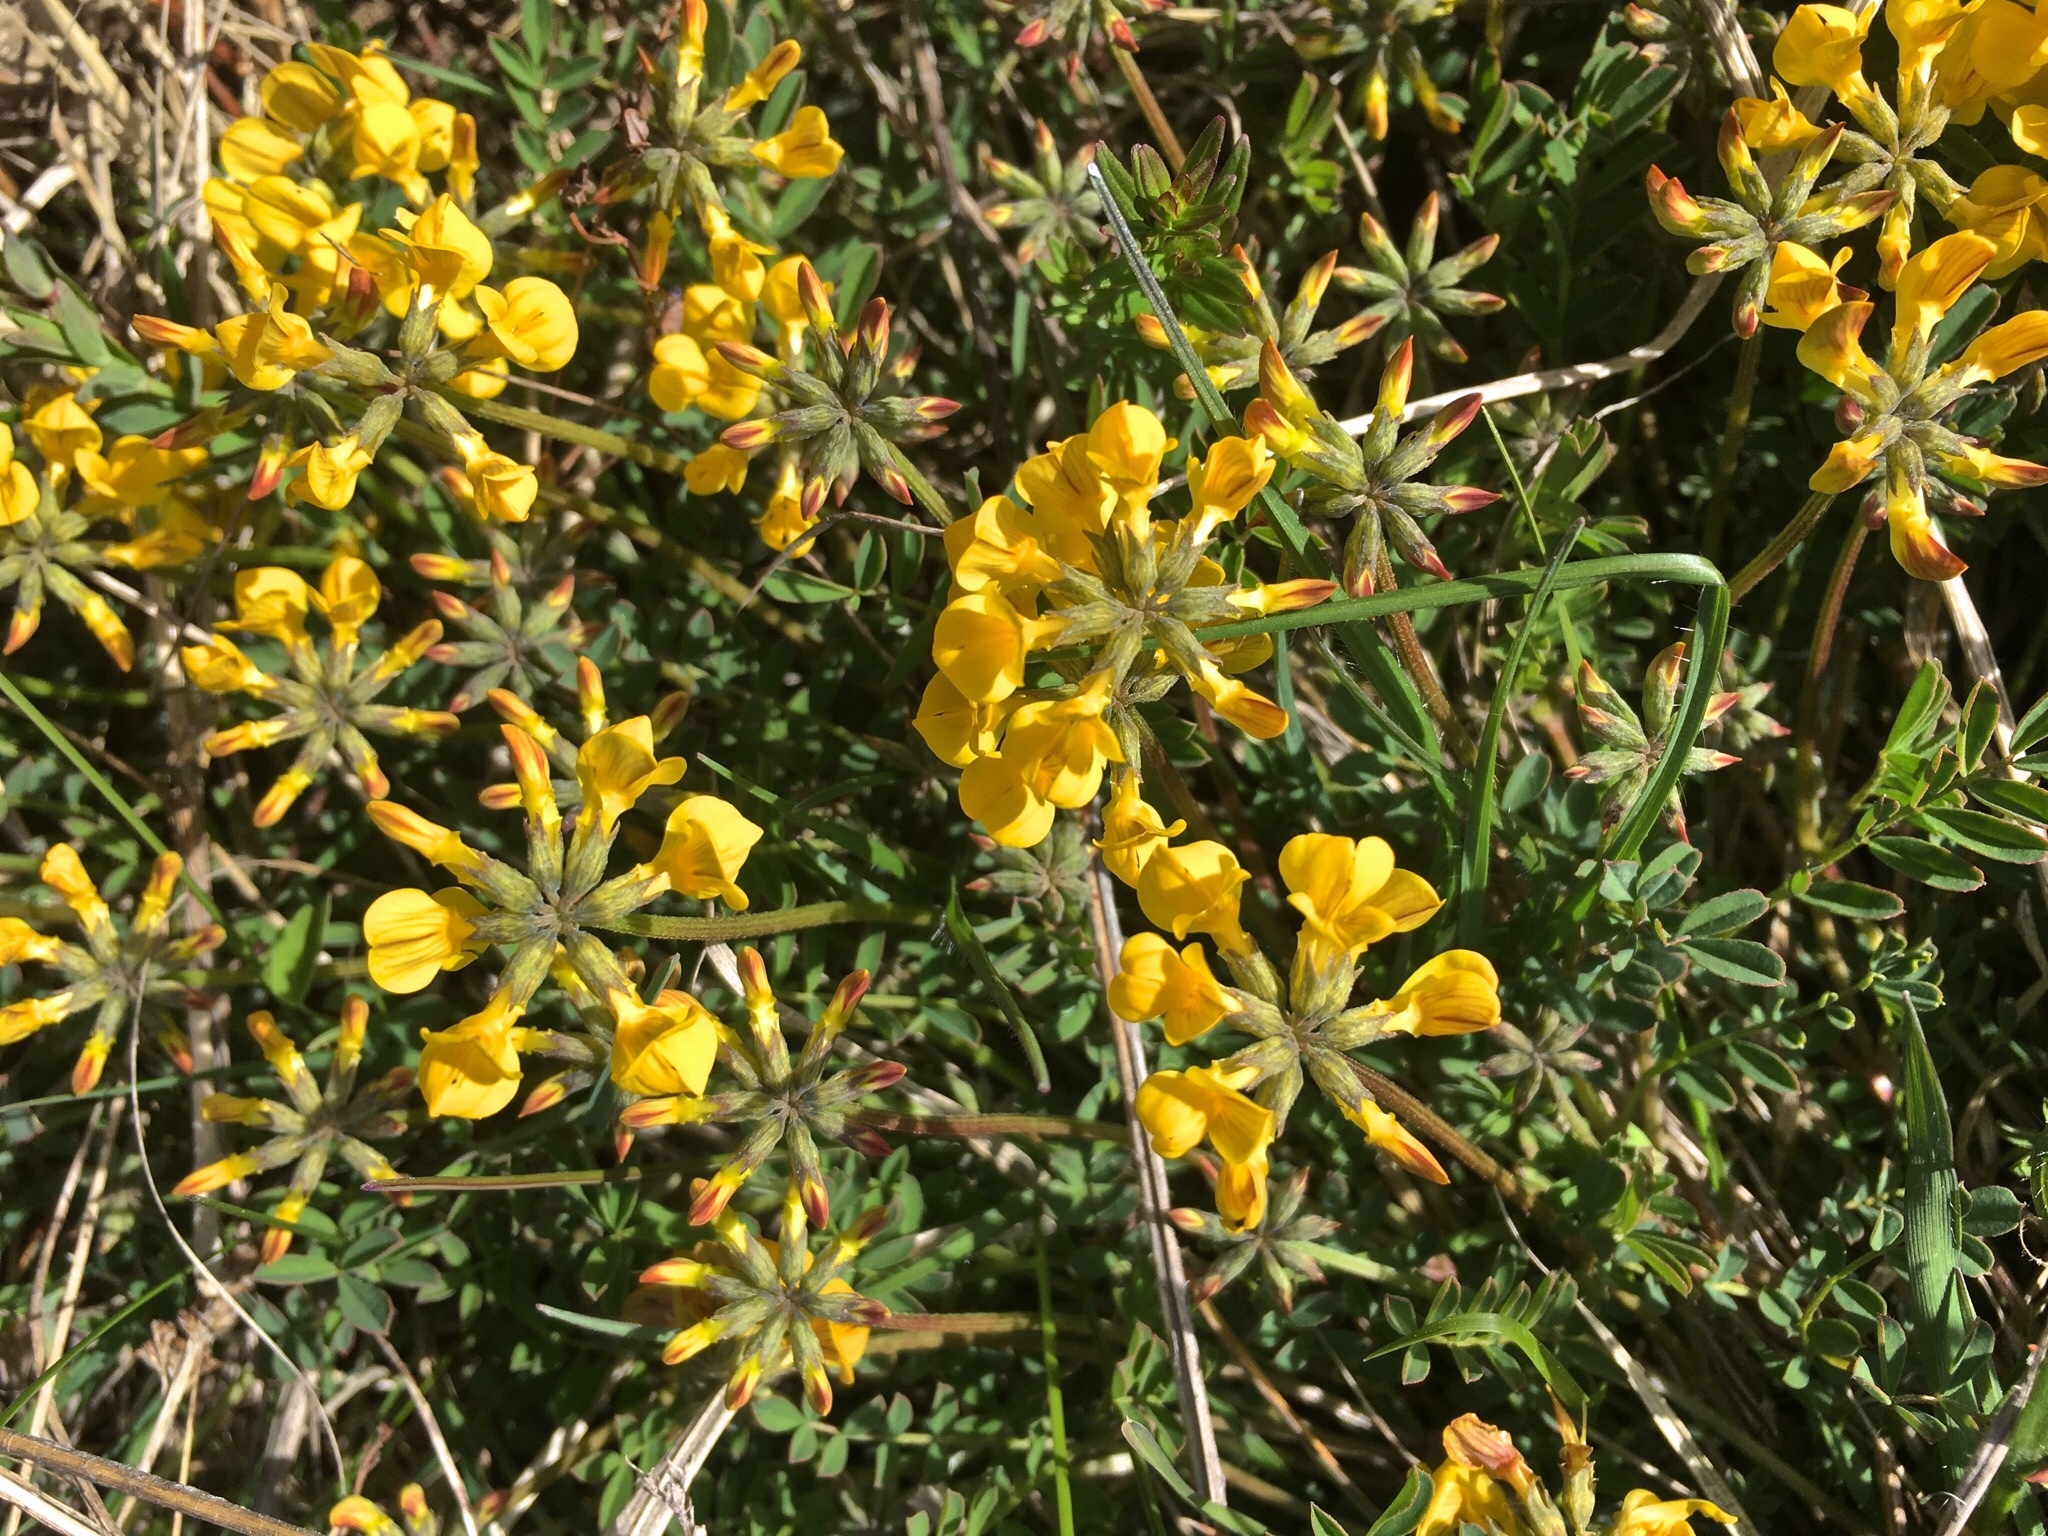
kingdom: Plantae
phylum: Tracheophyta
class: Magnoliopsida
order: Fabales
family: Fabaceae
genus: Hippocrepis
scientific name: Hippocrepis comosa
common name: Horseshoe vetch
